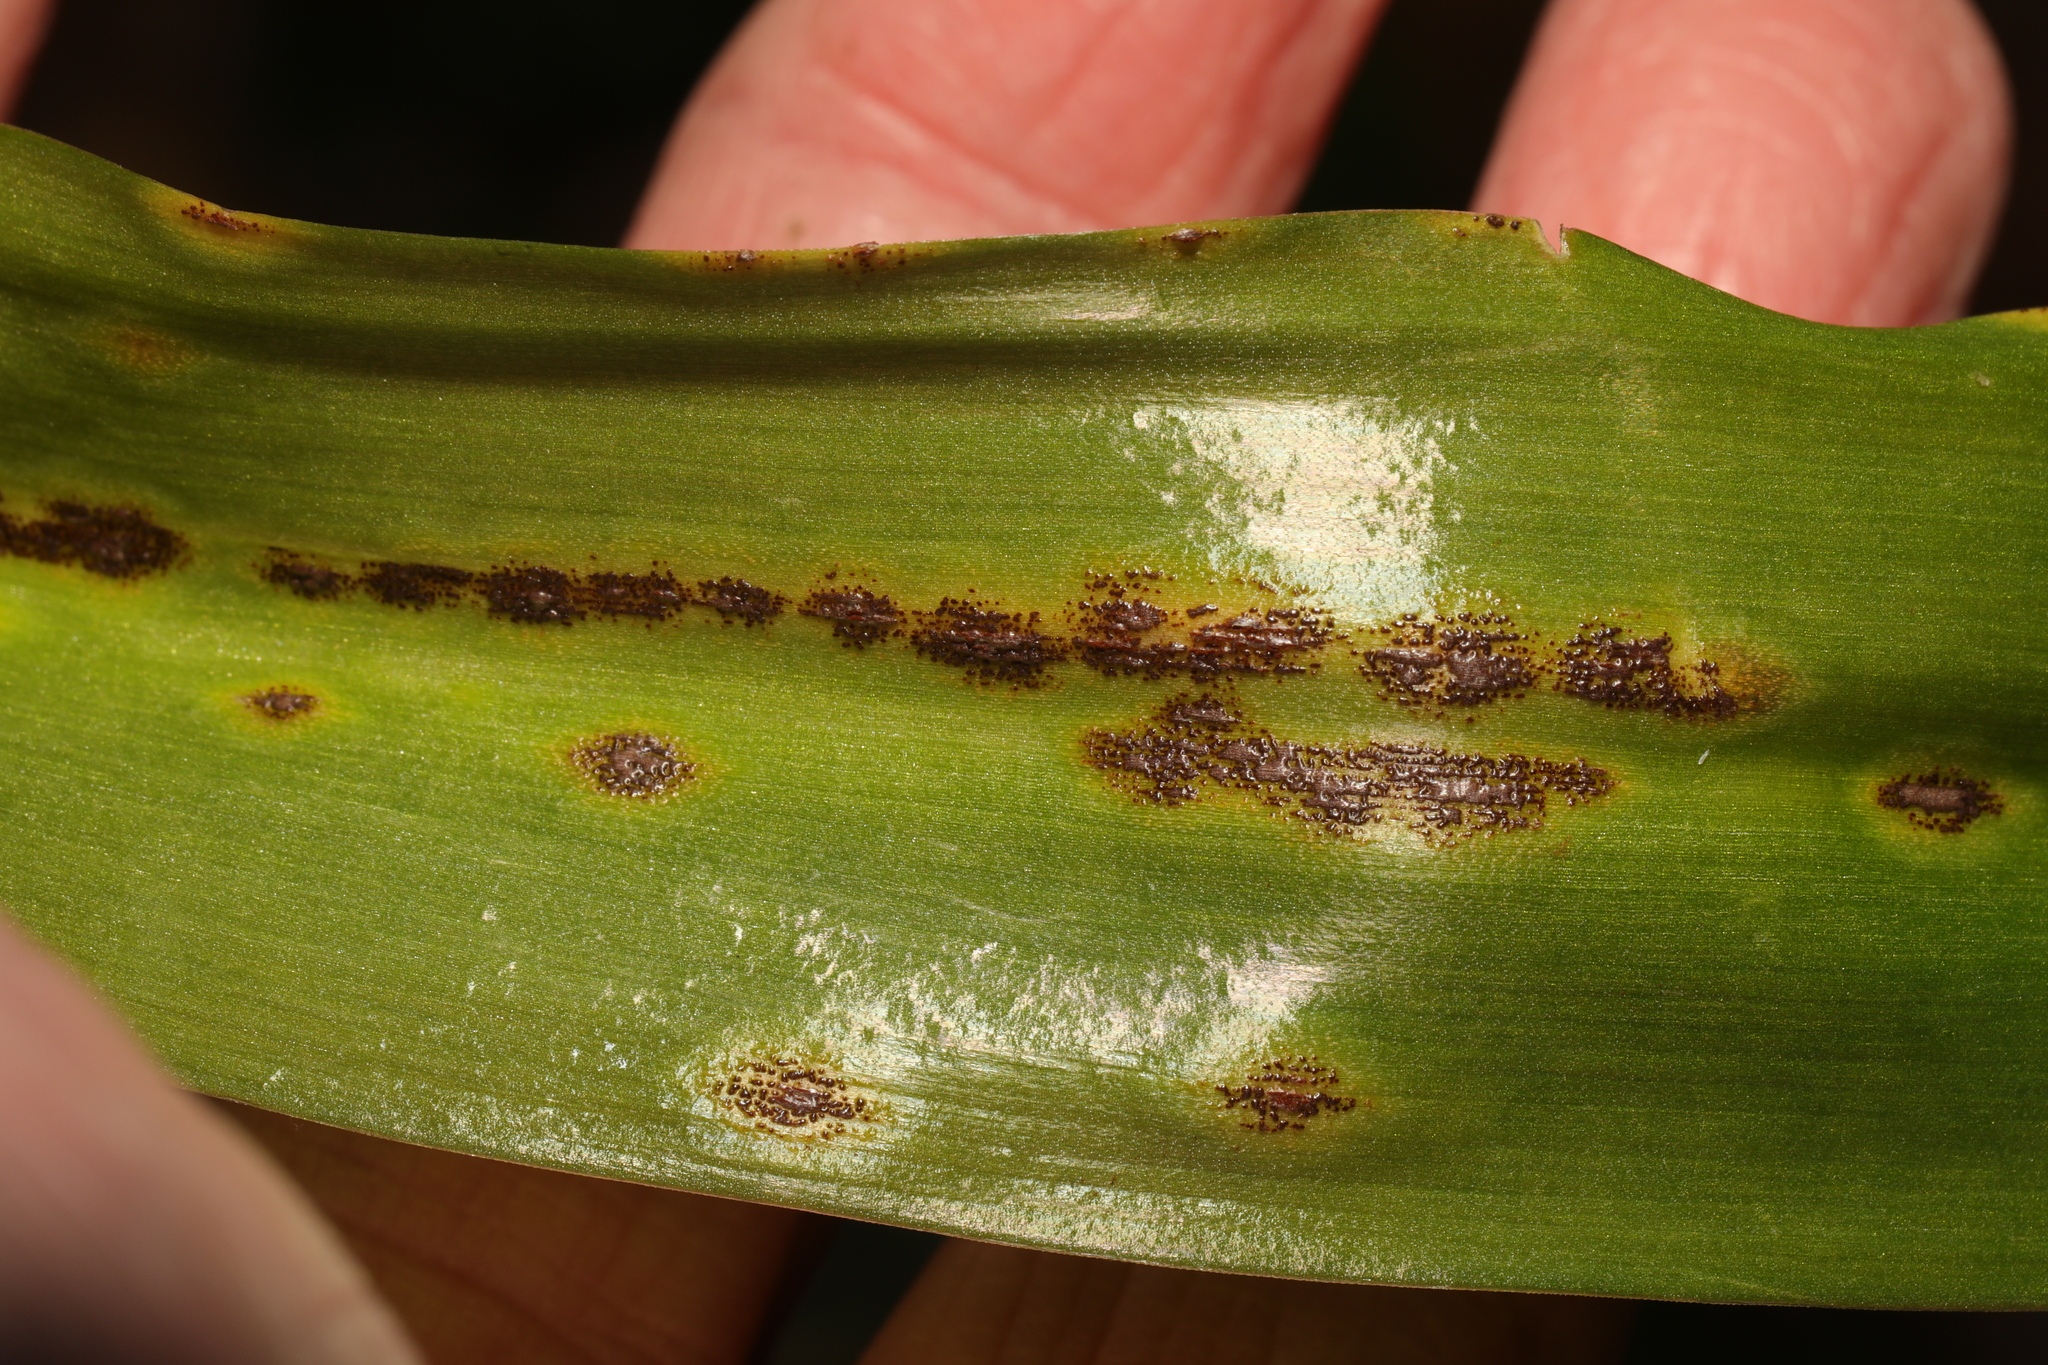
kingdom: Fungi
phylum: Basidiomycota
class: Pucciniomycetes
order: Pucciniales
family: Pucciniaceae
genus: Uromyces
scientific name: Uromyces hyacinthi
